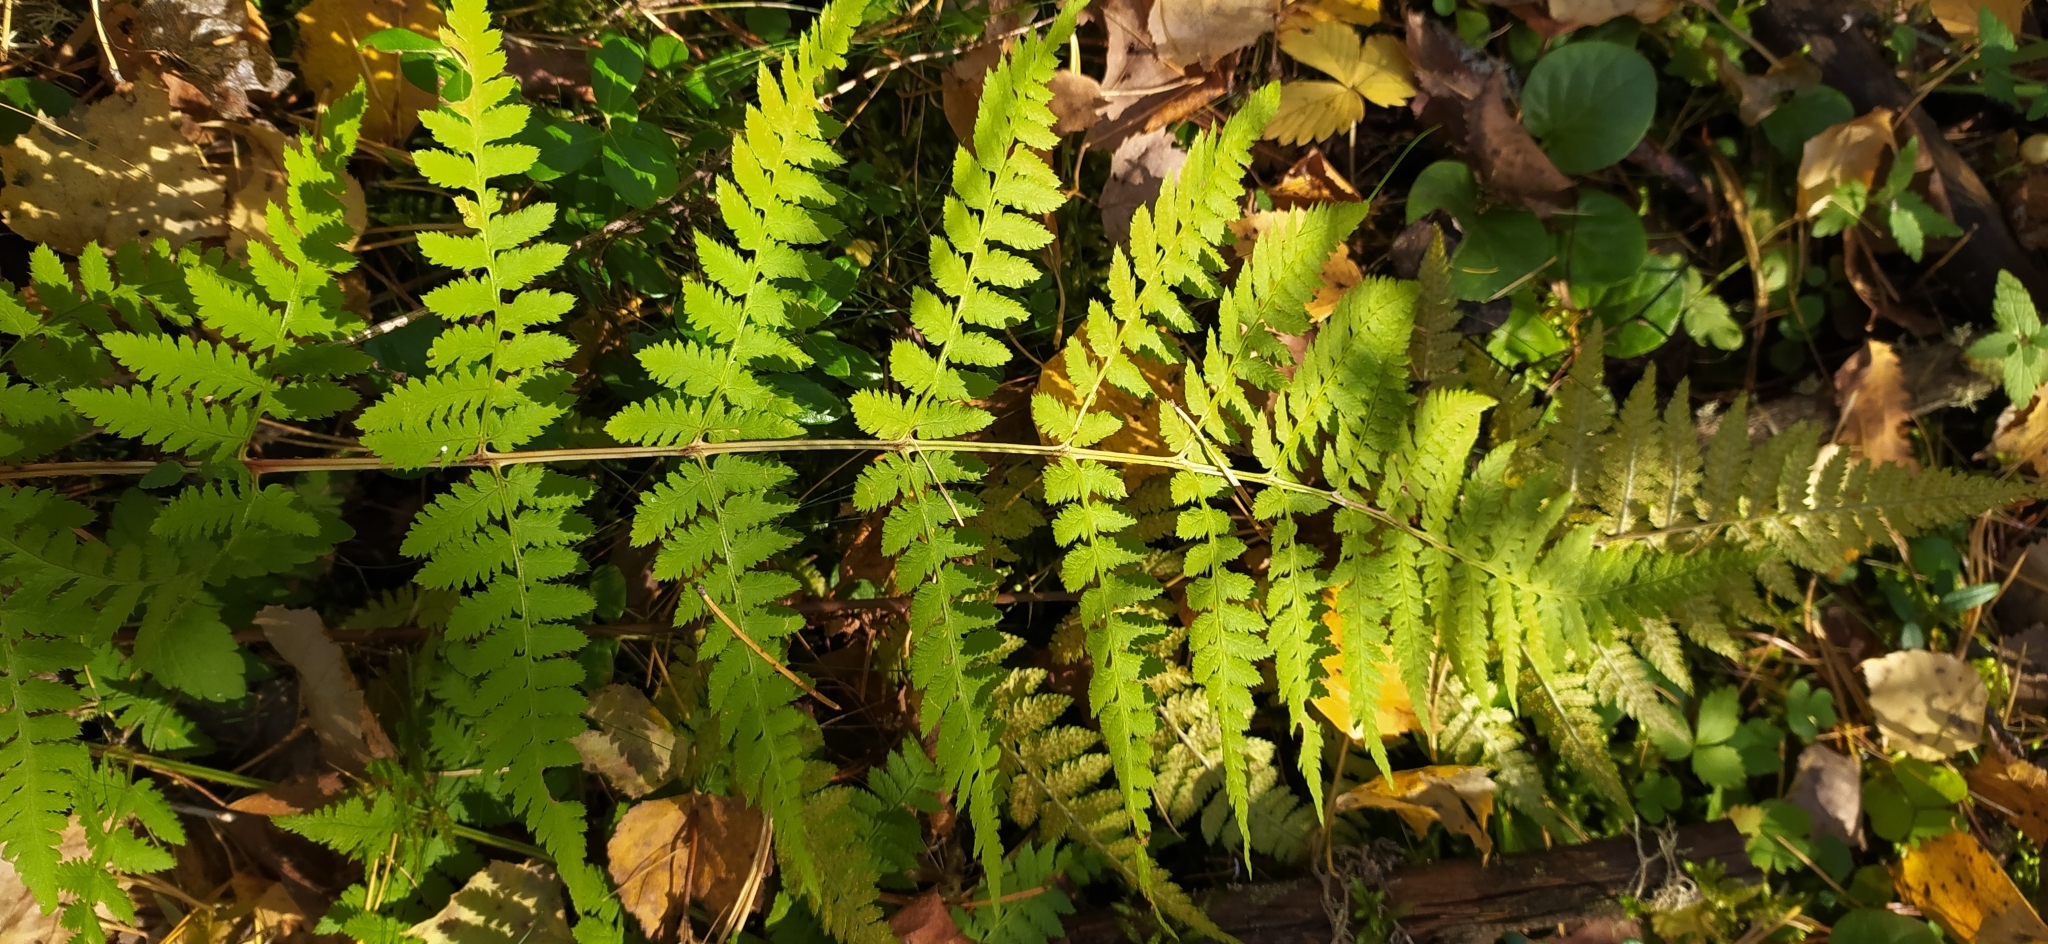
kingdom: Plantae
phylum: Tracheophyta
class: Polypodiopsida
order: Polypodiales
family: Dryopteridaceae
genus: Dryopteris
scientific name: Dryopteris carthusiana
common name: Narrow buckler-fern
